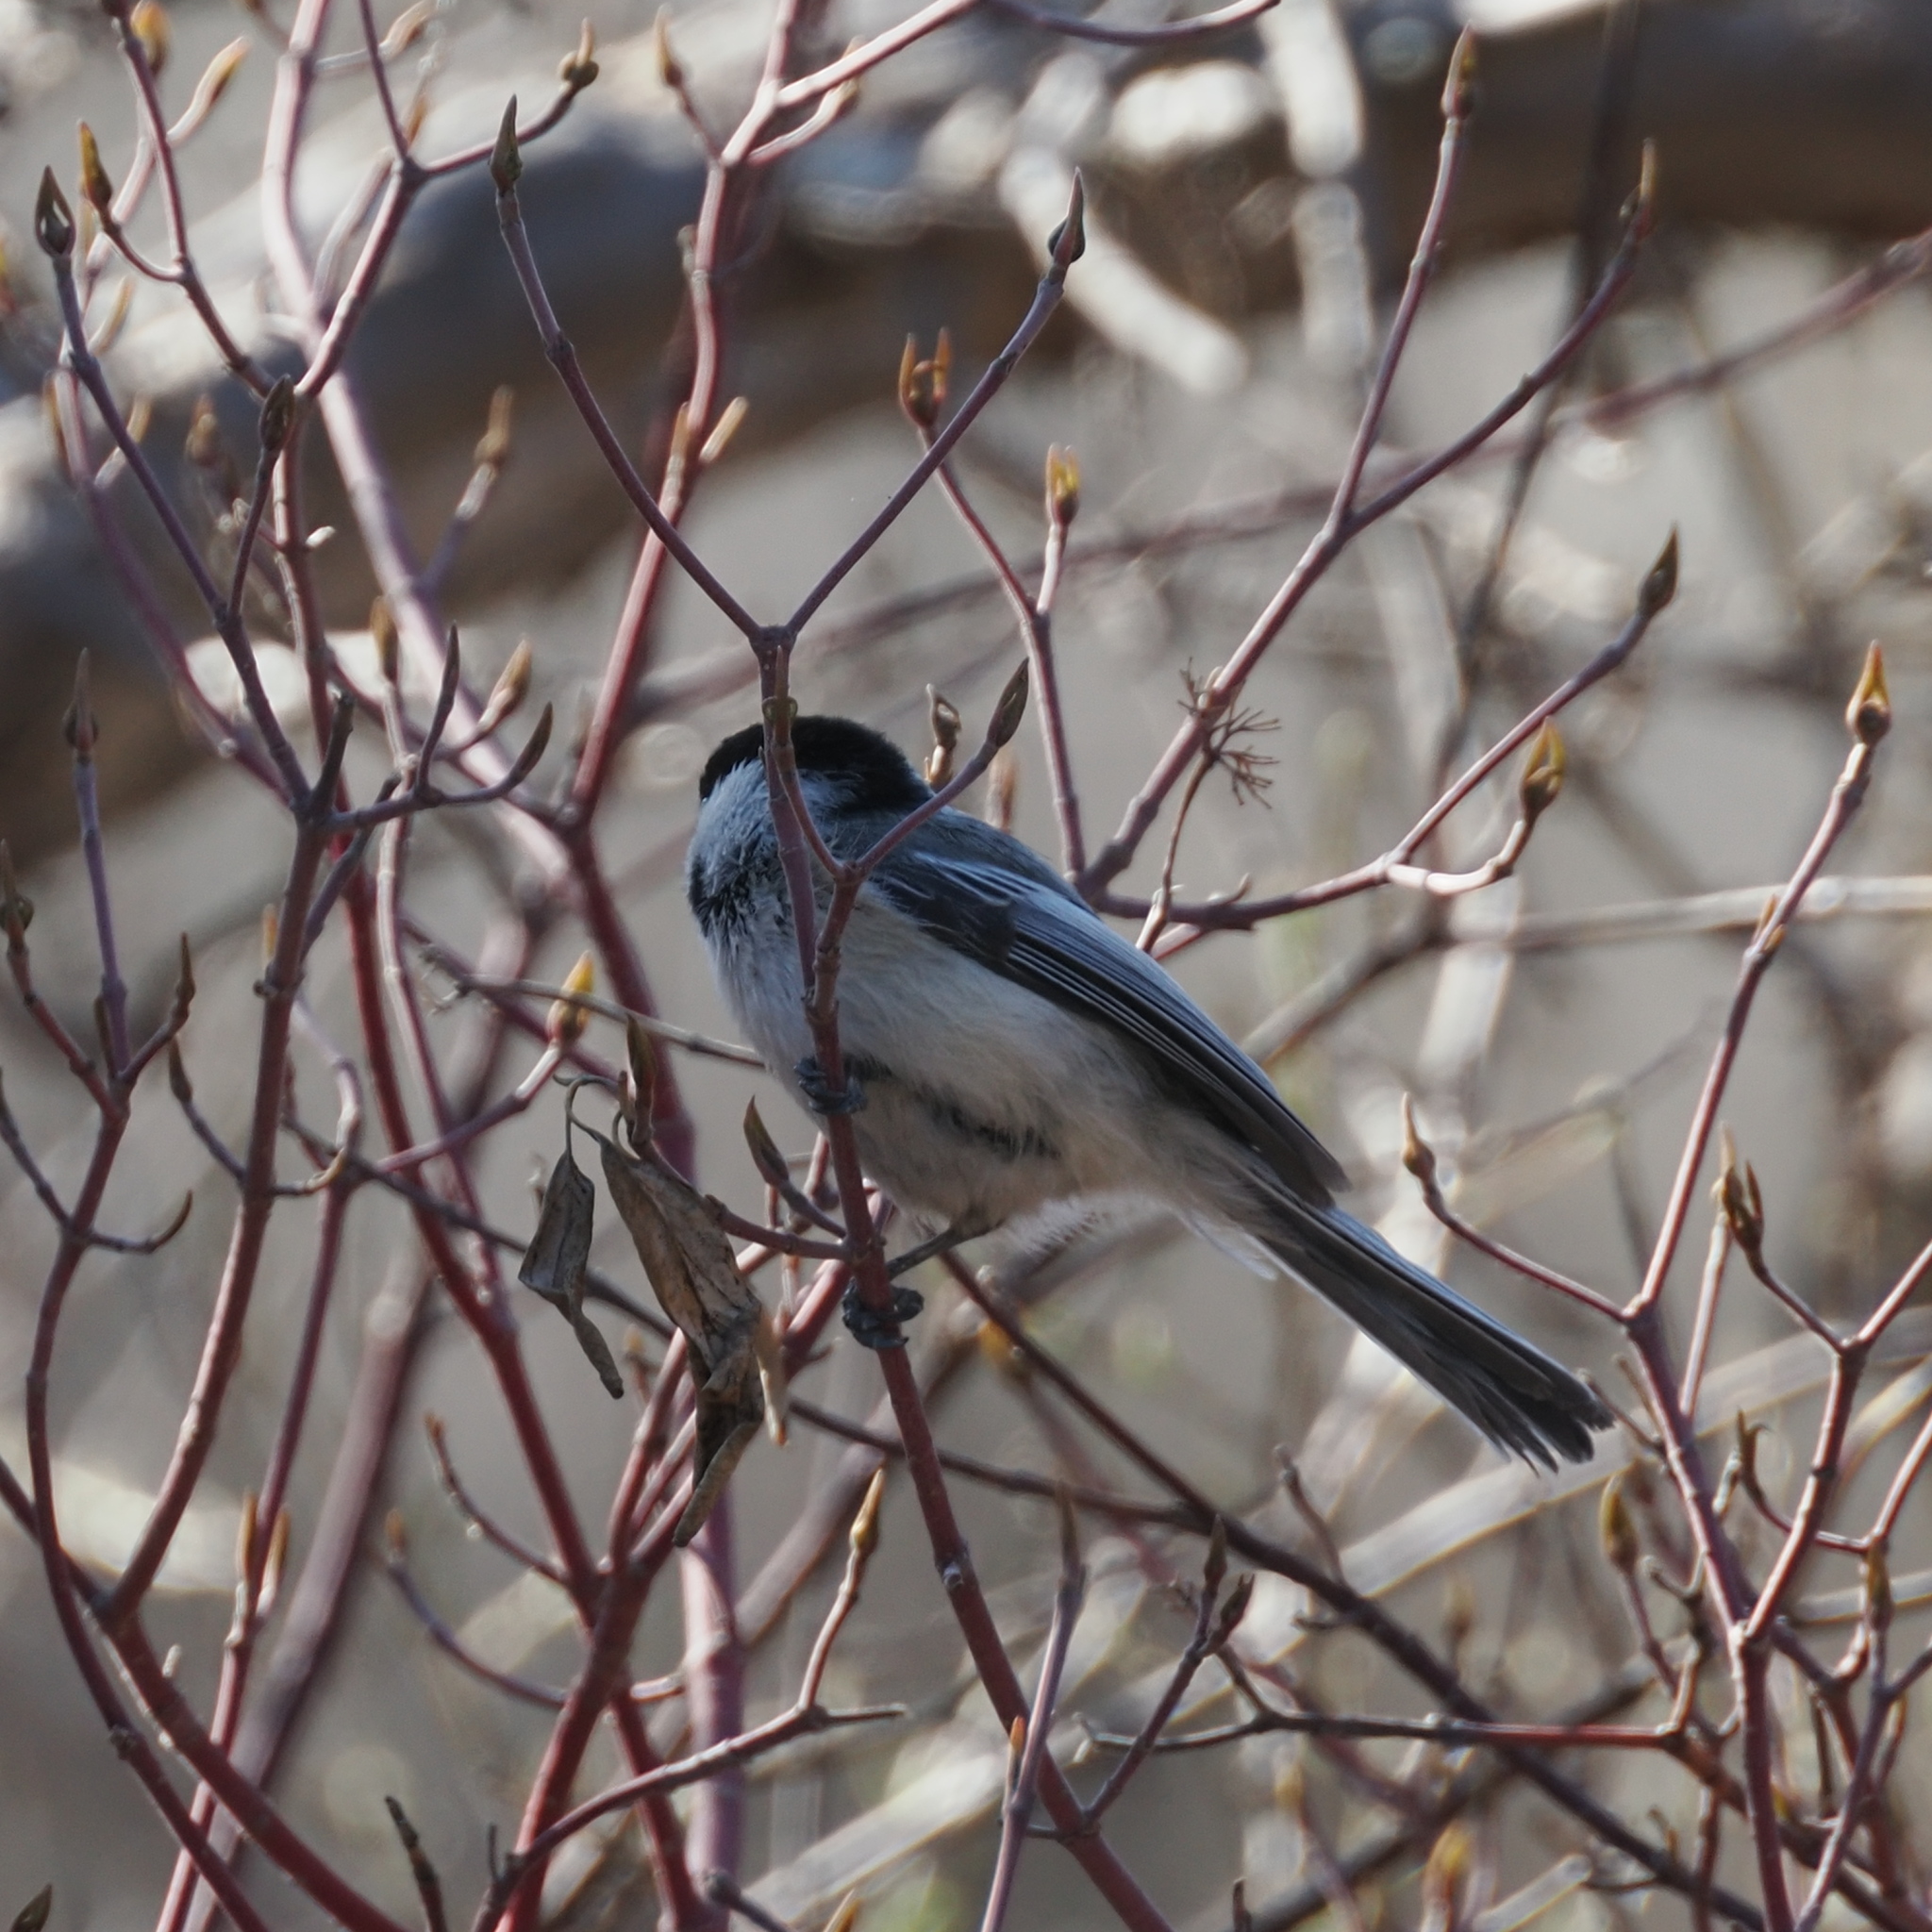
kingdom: Animalia
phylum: Chordata
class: Aves
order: Passeriformes
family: Paridae
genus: Poecile
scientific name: Poecile atricapillus
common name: Black-capped chickadee
